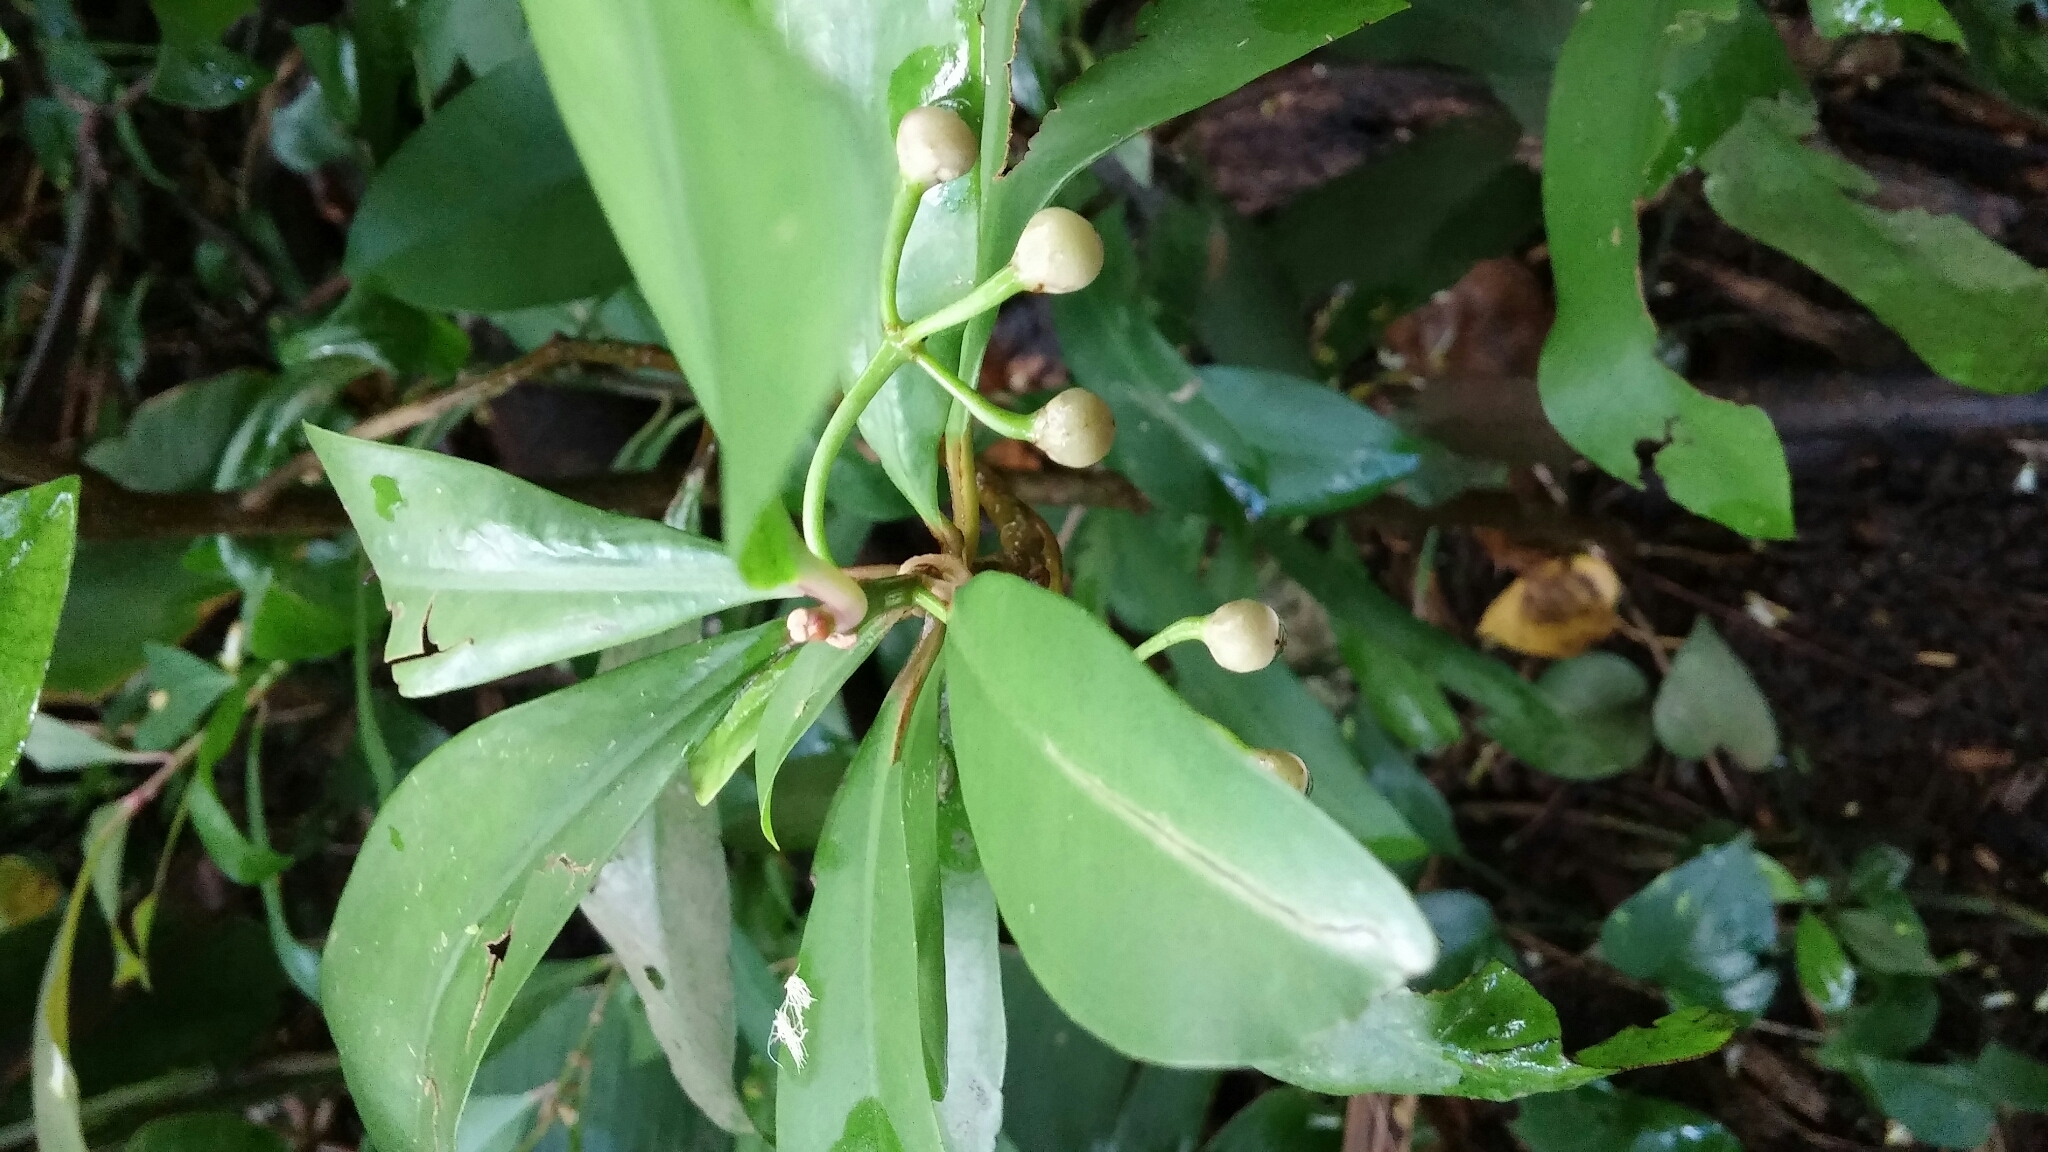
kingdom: Plantae
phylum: Tracheophyta
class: Magnoliopsida
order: Ericales
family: Primulaceae
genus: Ardisia
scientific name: Ardisia elliptica
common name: Shoebutton
